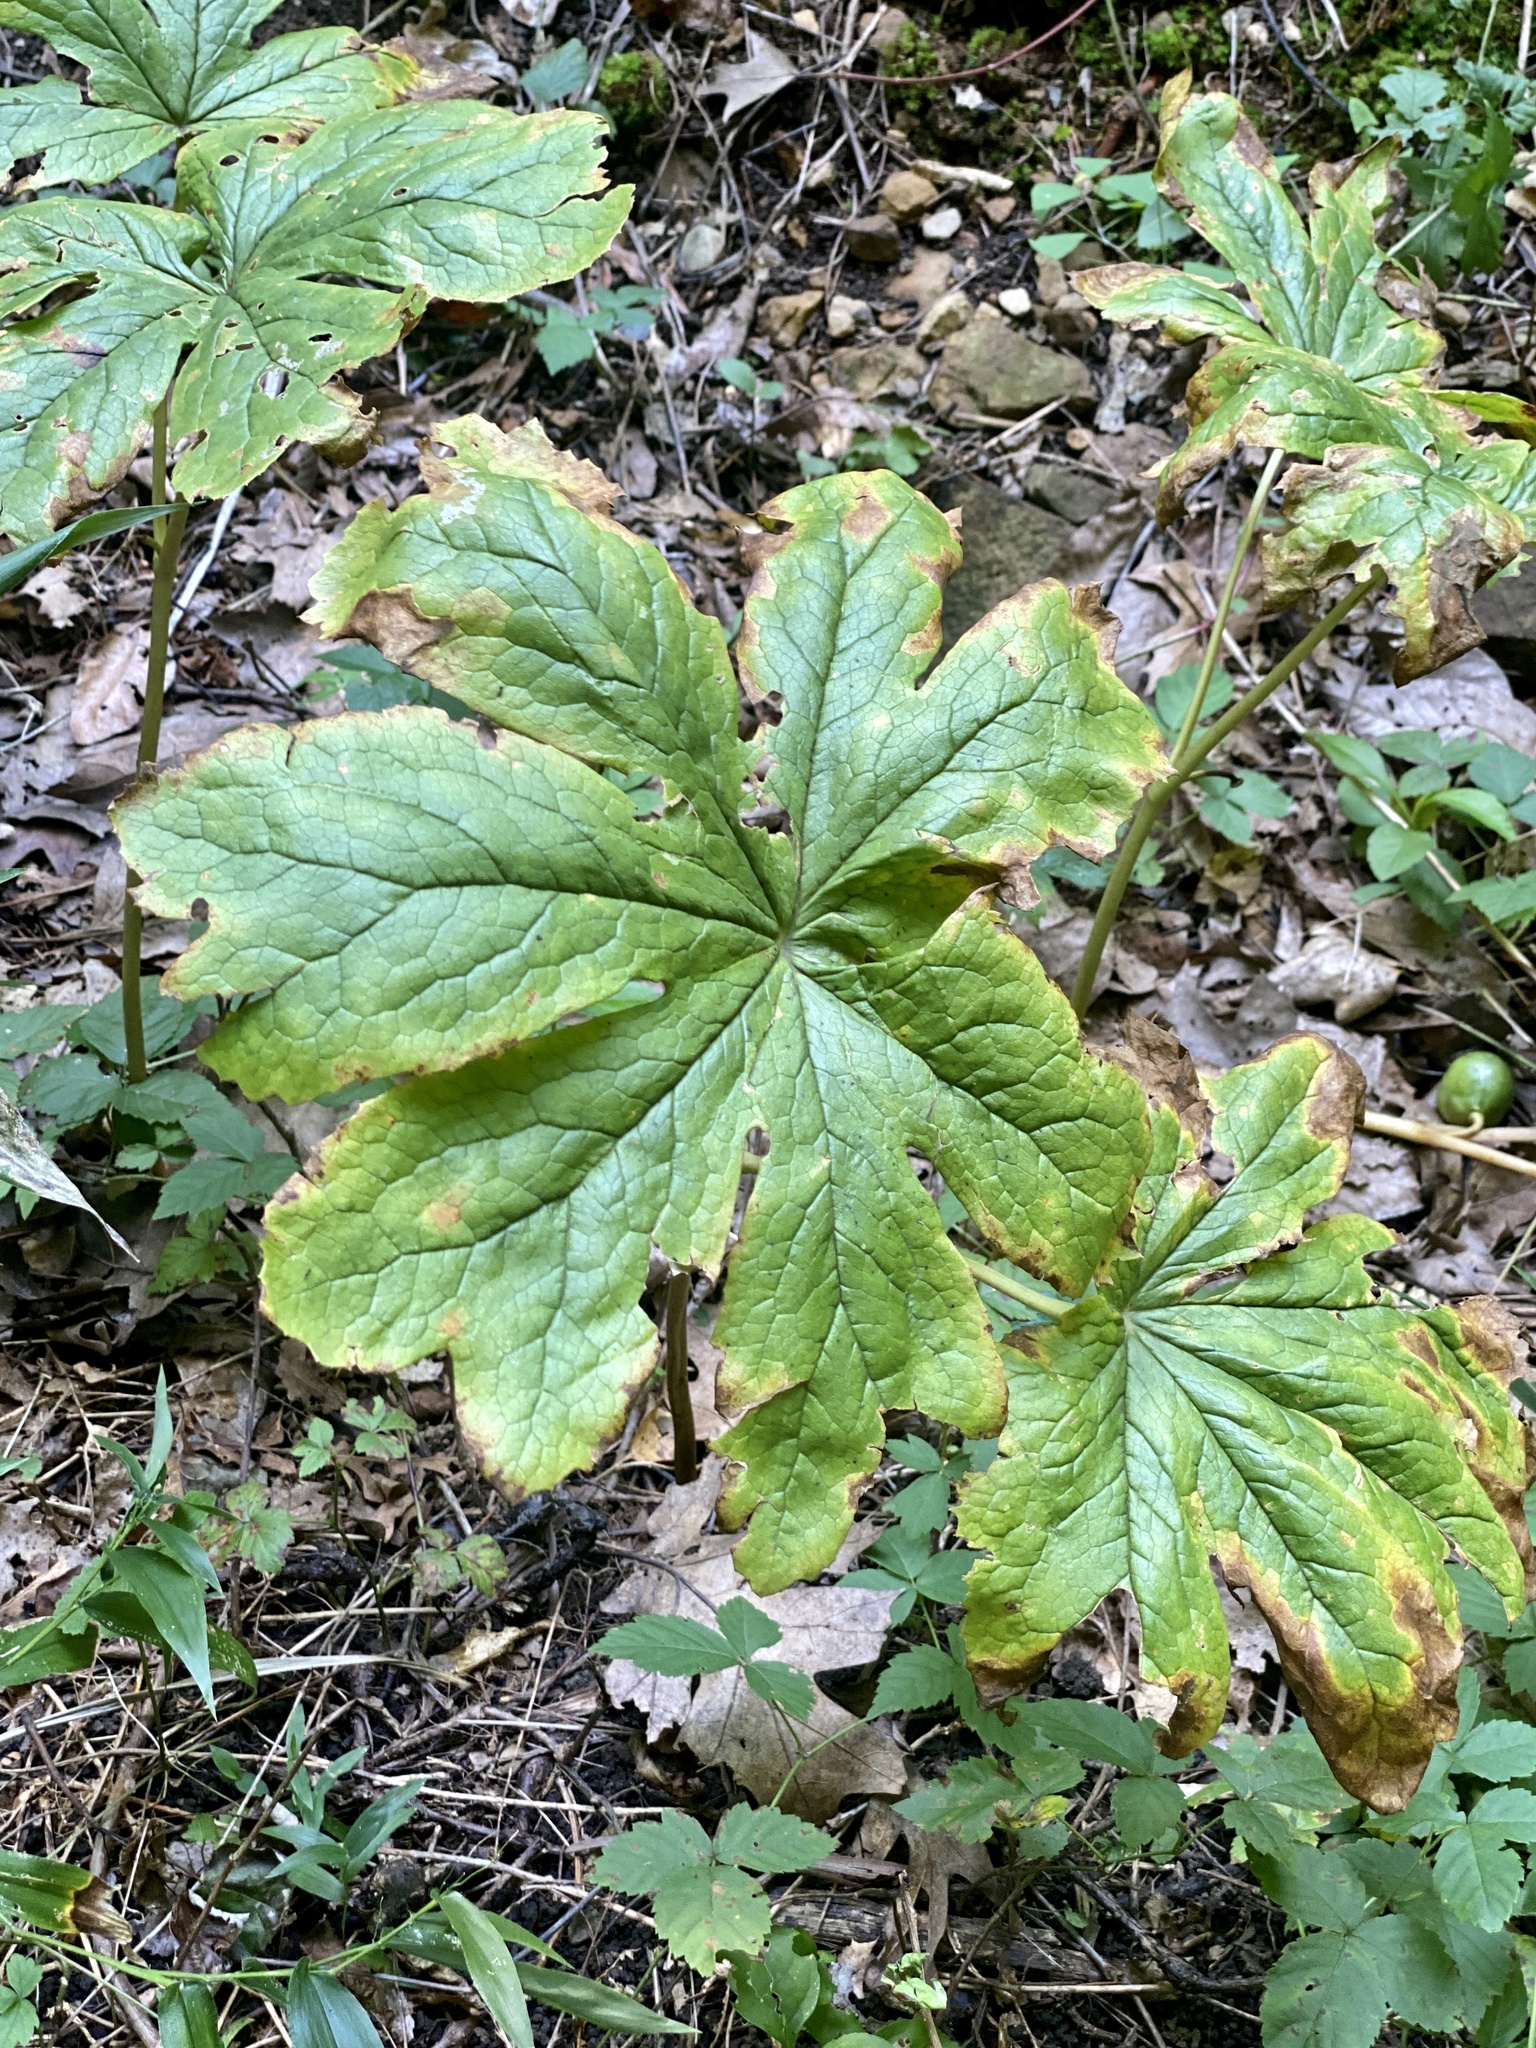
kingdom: Plantae
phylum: Tracheophyta
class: Magnoliopsida
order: Ranunculales
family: Berberidaceae
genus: Podophyllum
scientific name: Podophyllum peltatum
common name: Wild mandrake
